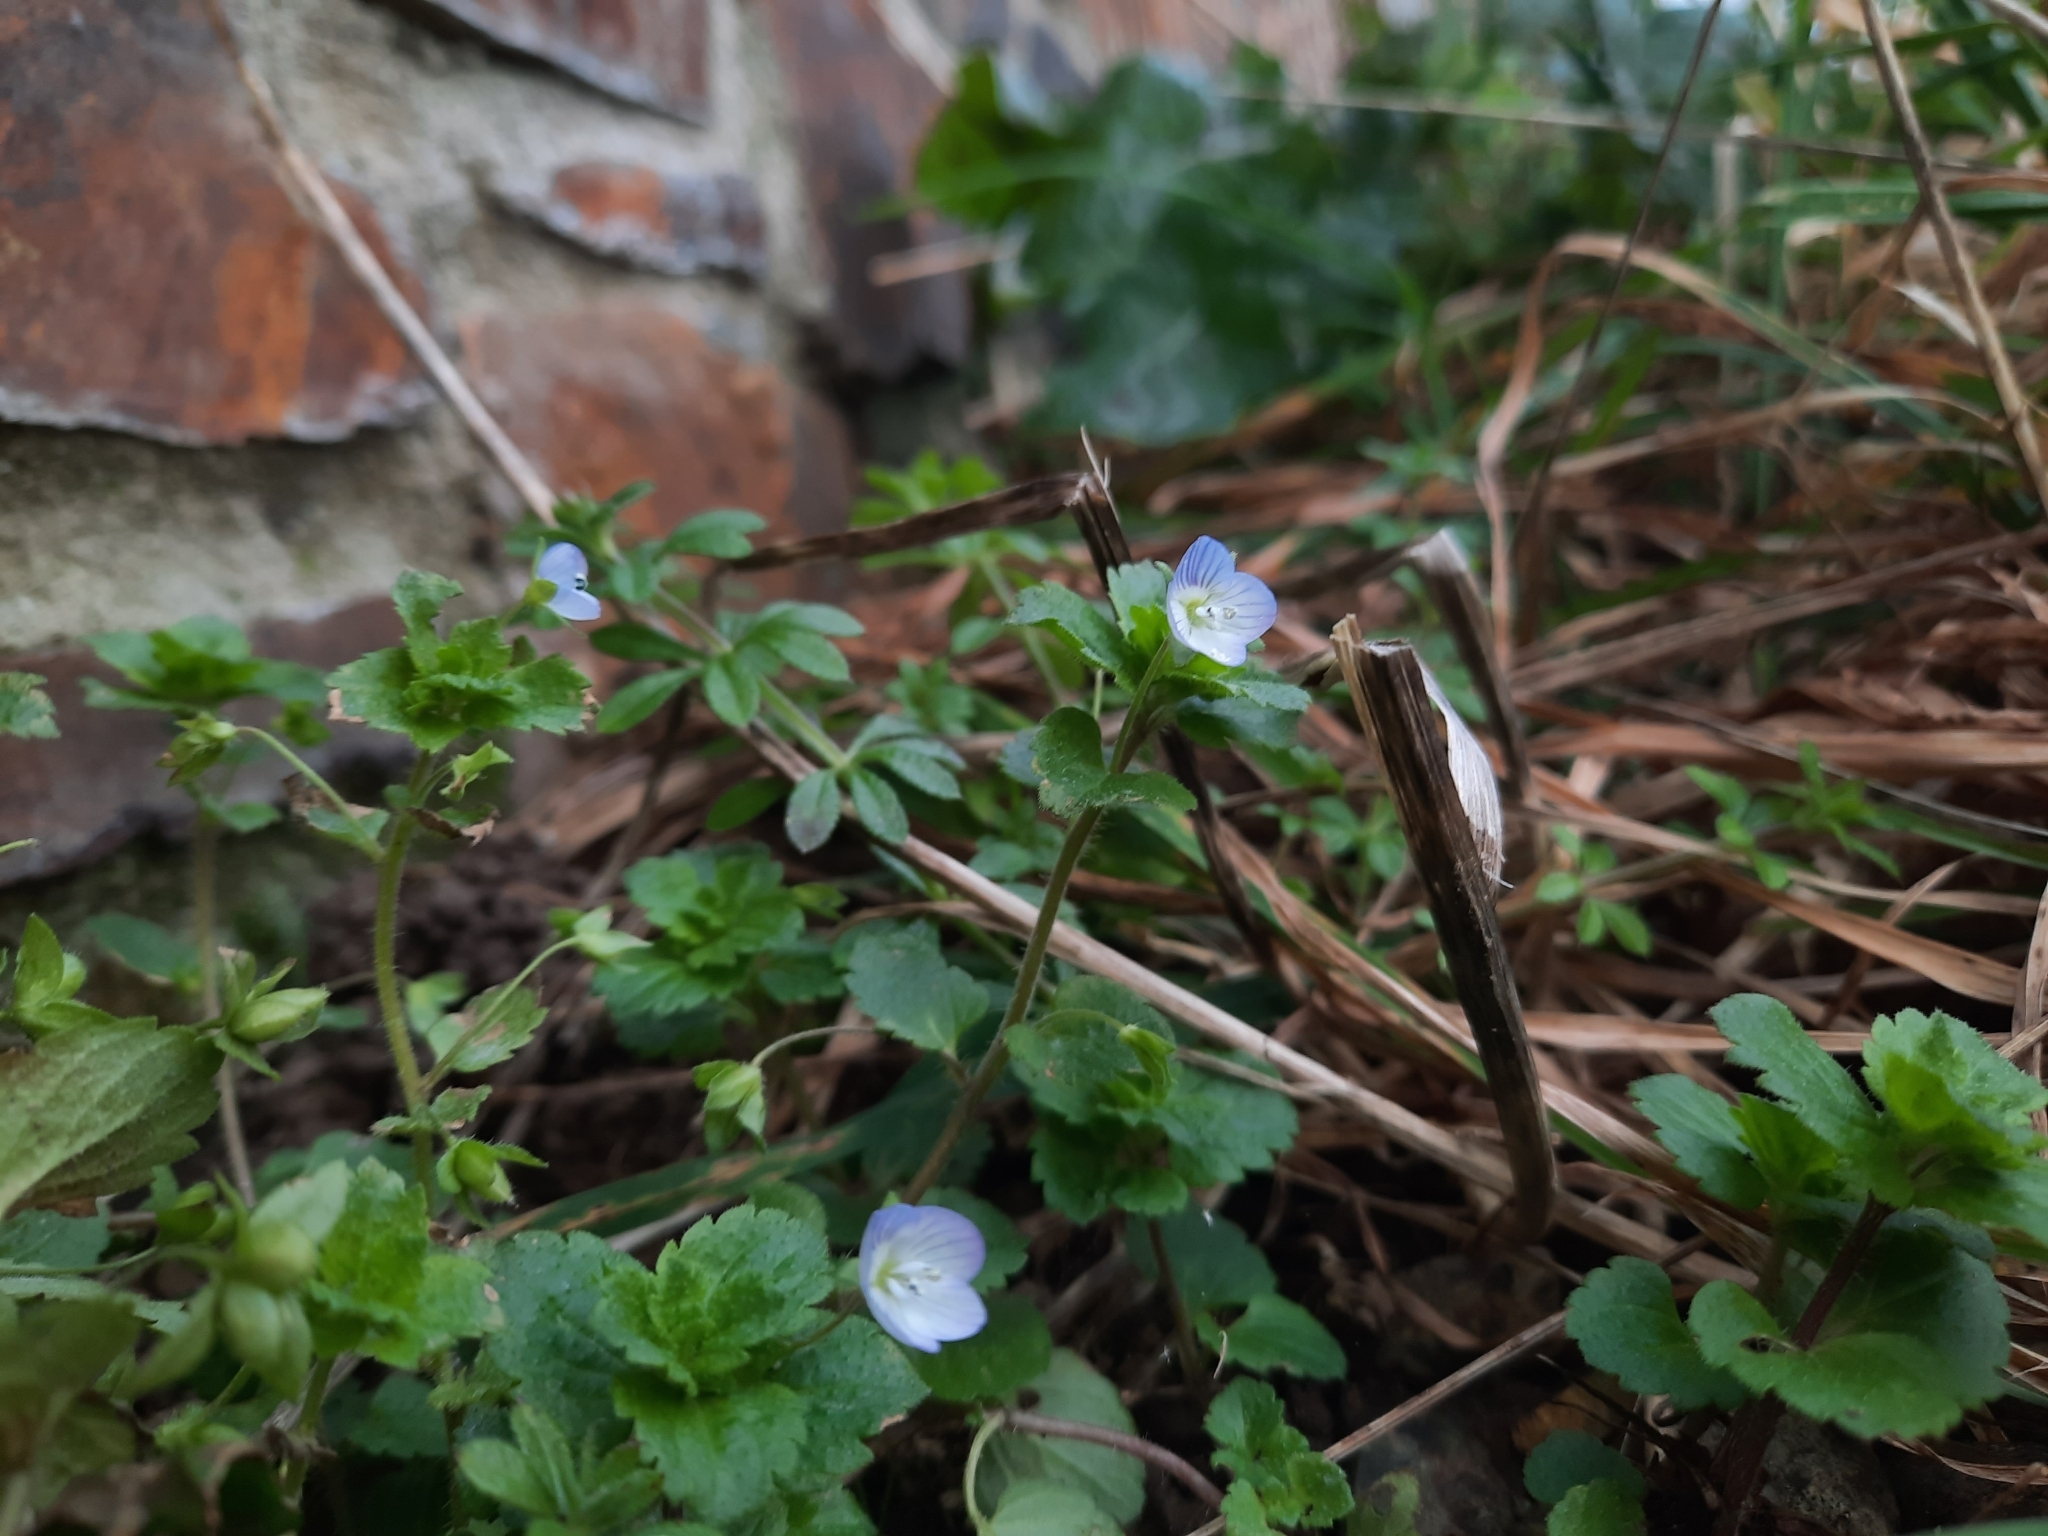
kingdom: Plantae
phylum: Tracheophyta
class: Magnoliopsida
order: Lamiales
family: Plantaginaceae
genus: Veronica
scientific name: Veronica persica
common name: Common field-speedwell
